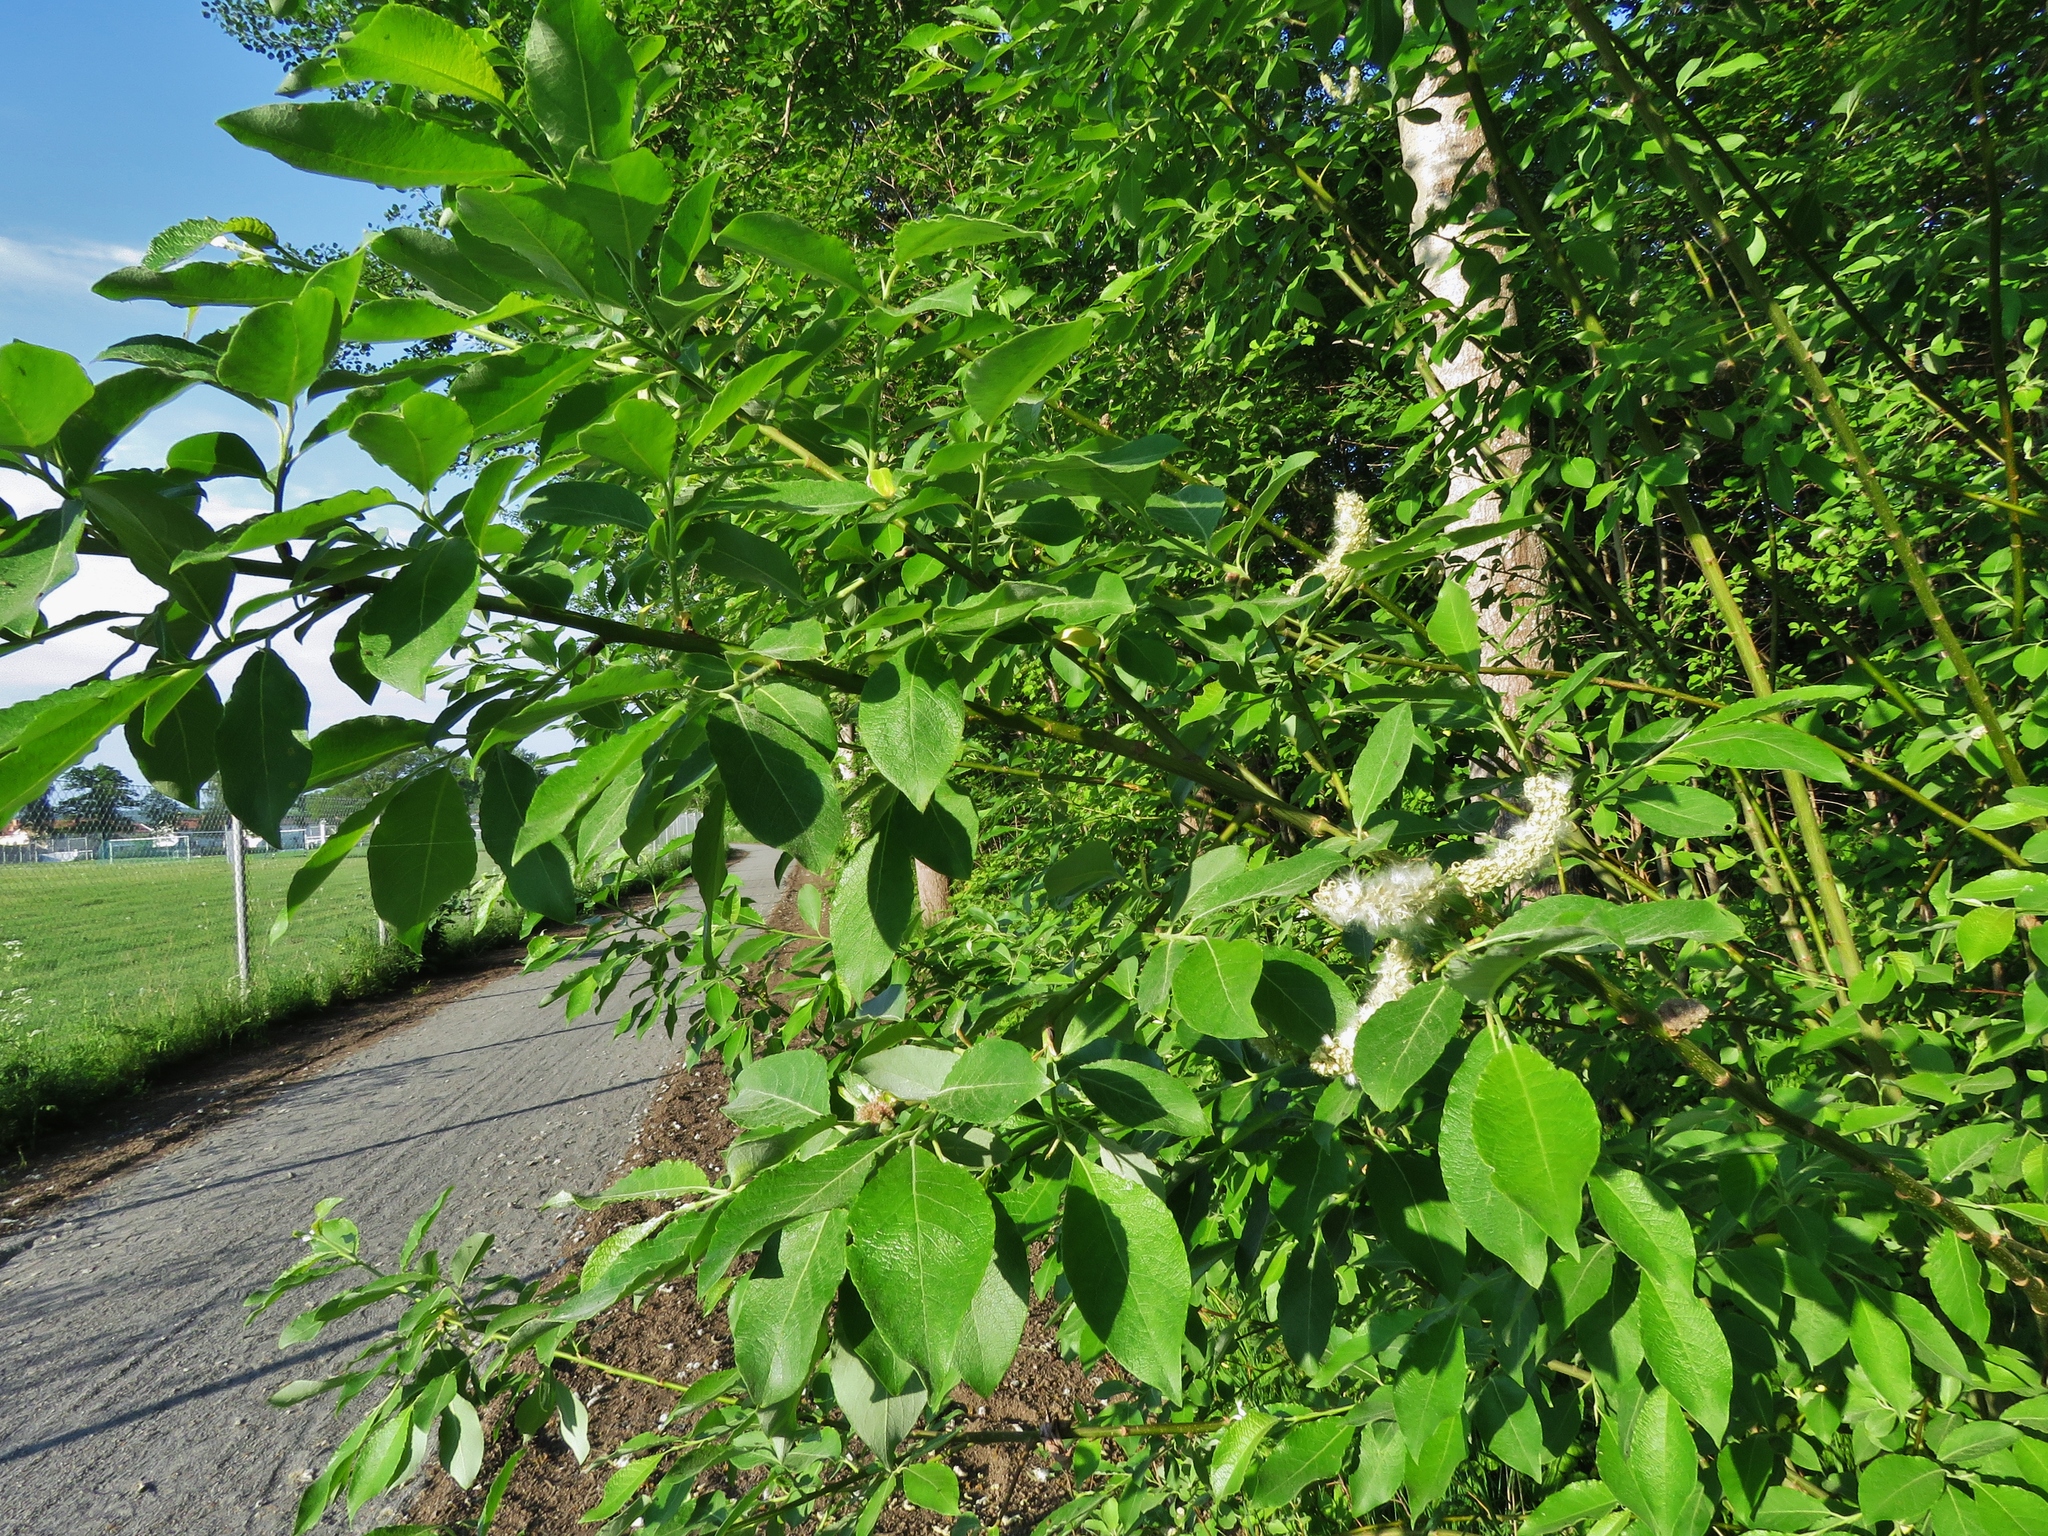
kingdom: Plantae
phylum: Tracheophyta
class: Magnoliopsida
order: Malpighiales
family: Salicaceae
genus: Salix
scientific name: Salix caprea
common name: Goat willow
